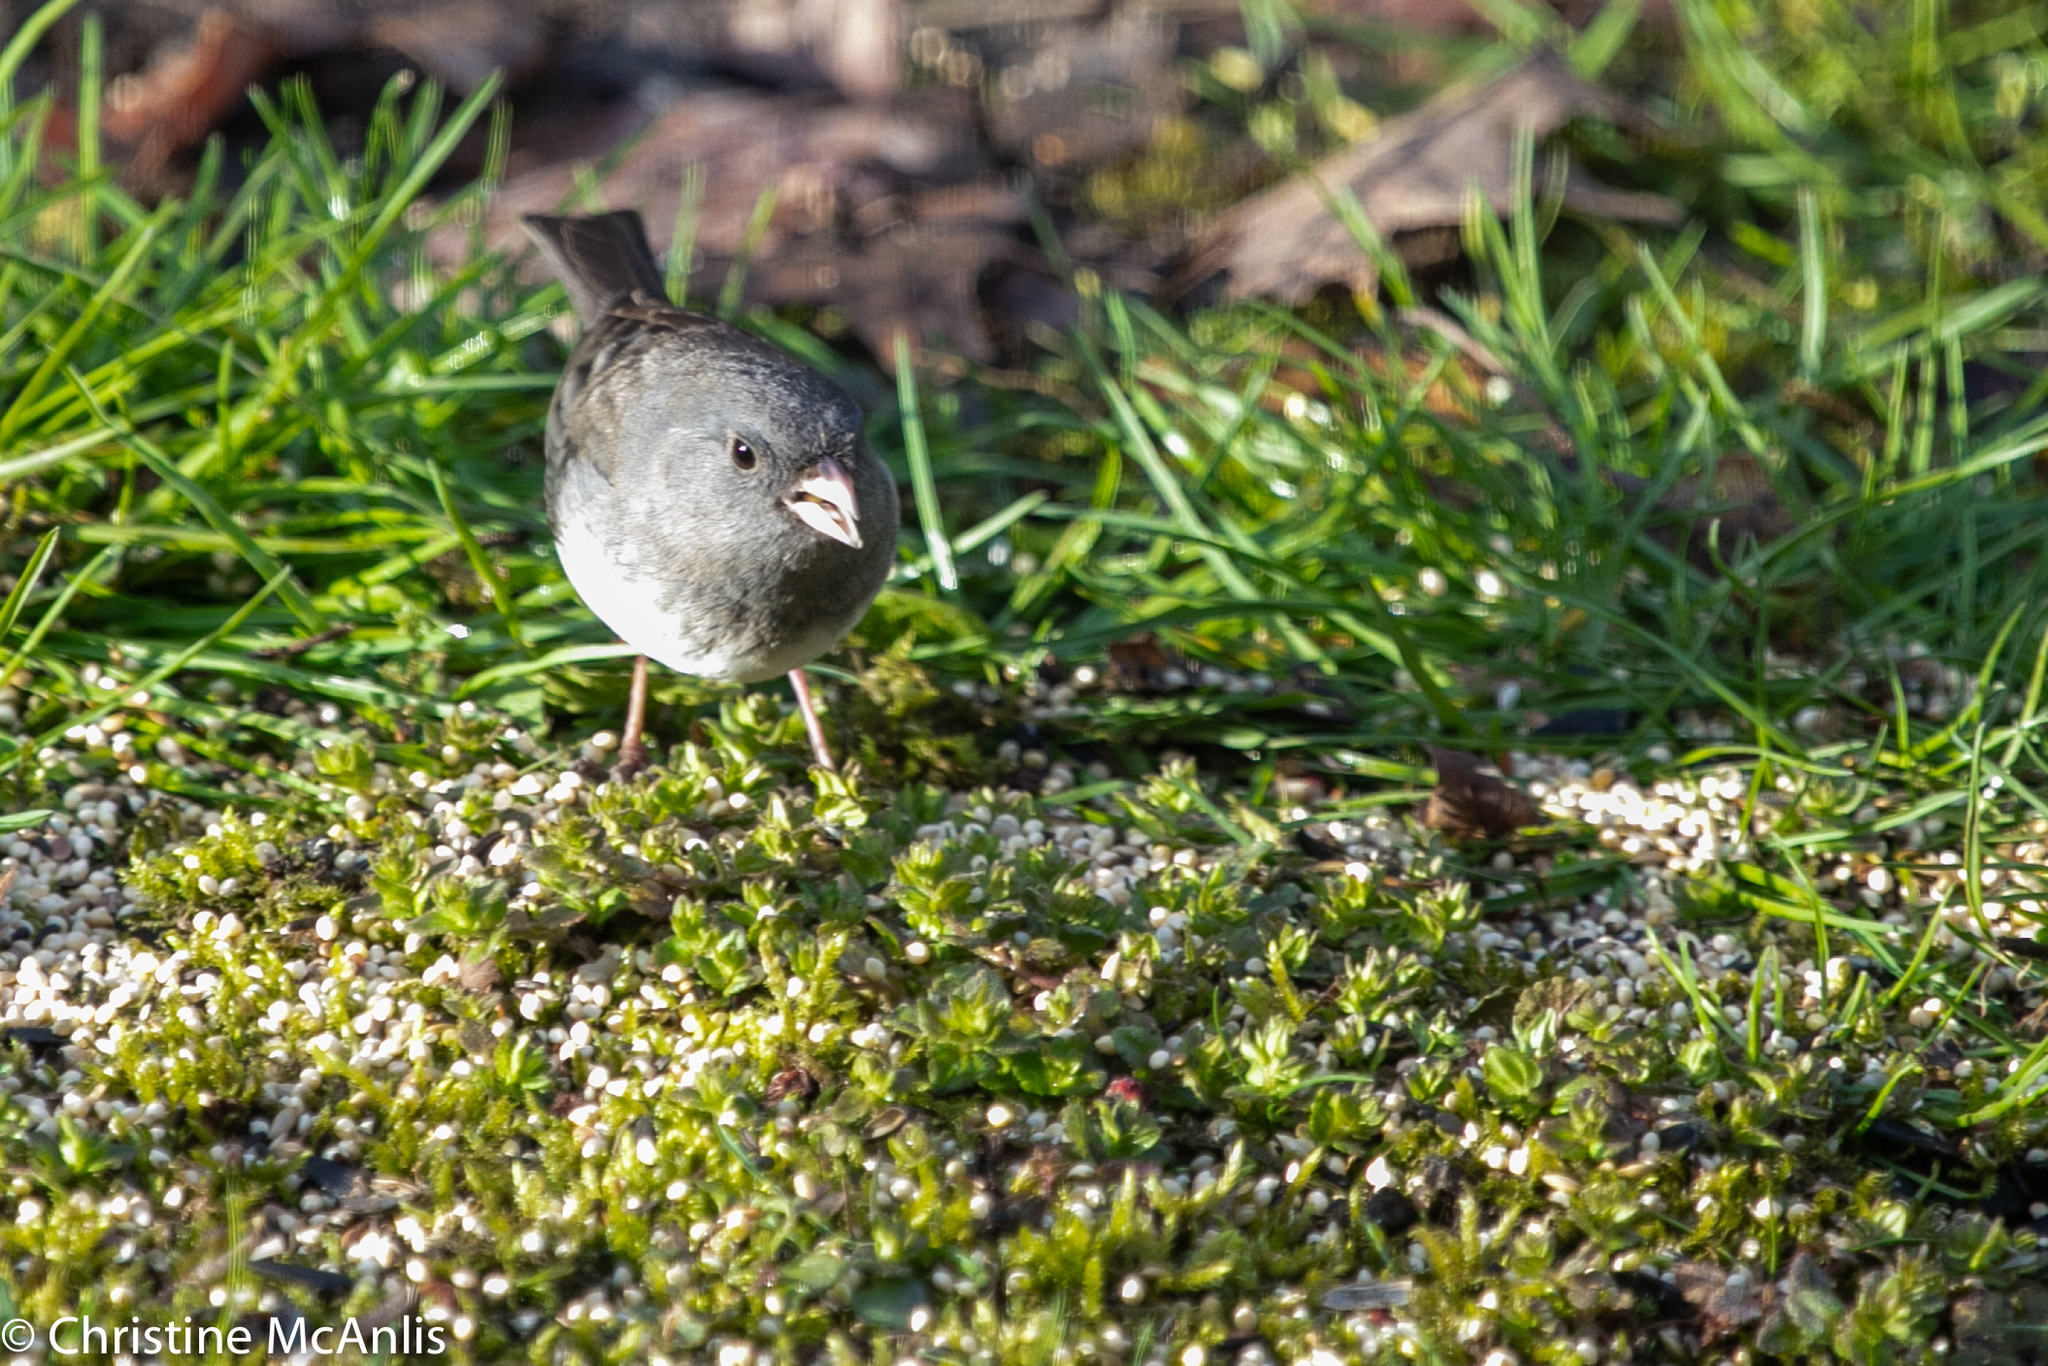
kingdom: Animalia
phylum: Chordata
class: Aves
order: Passeriformes
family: Passerellidae
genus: Junco
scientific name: Junco hyemalis
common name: Dark-eyed junco
